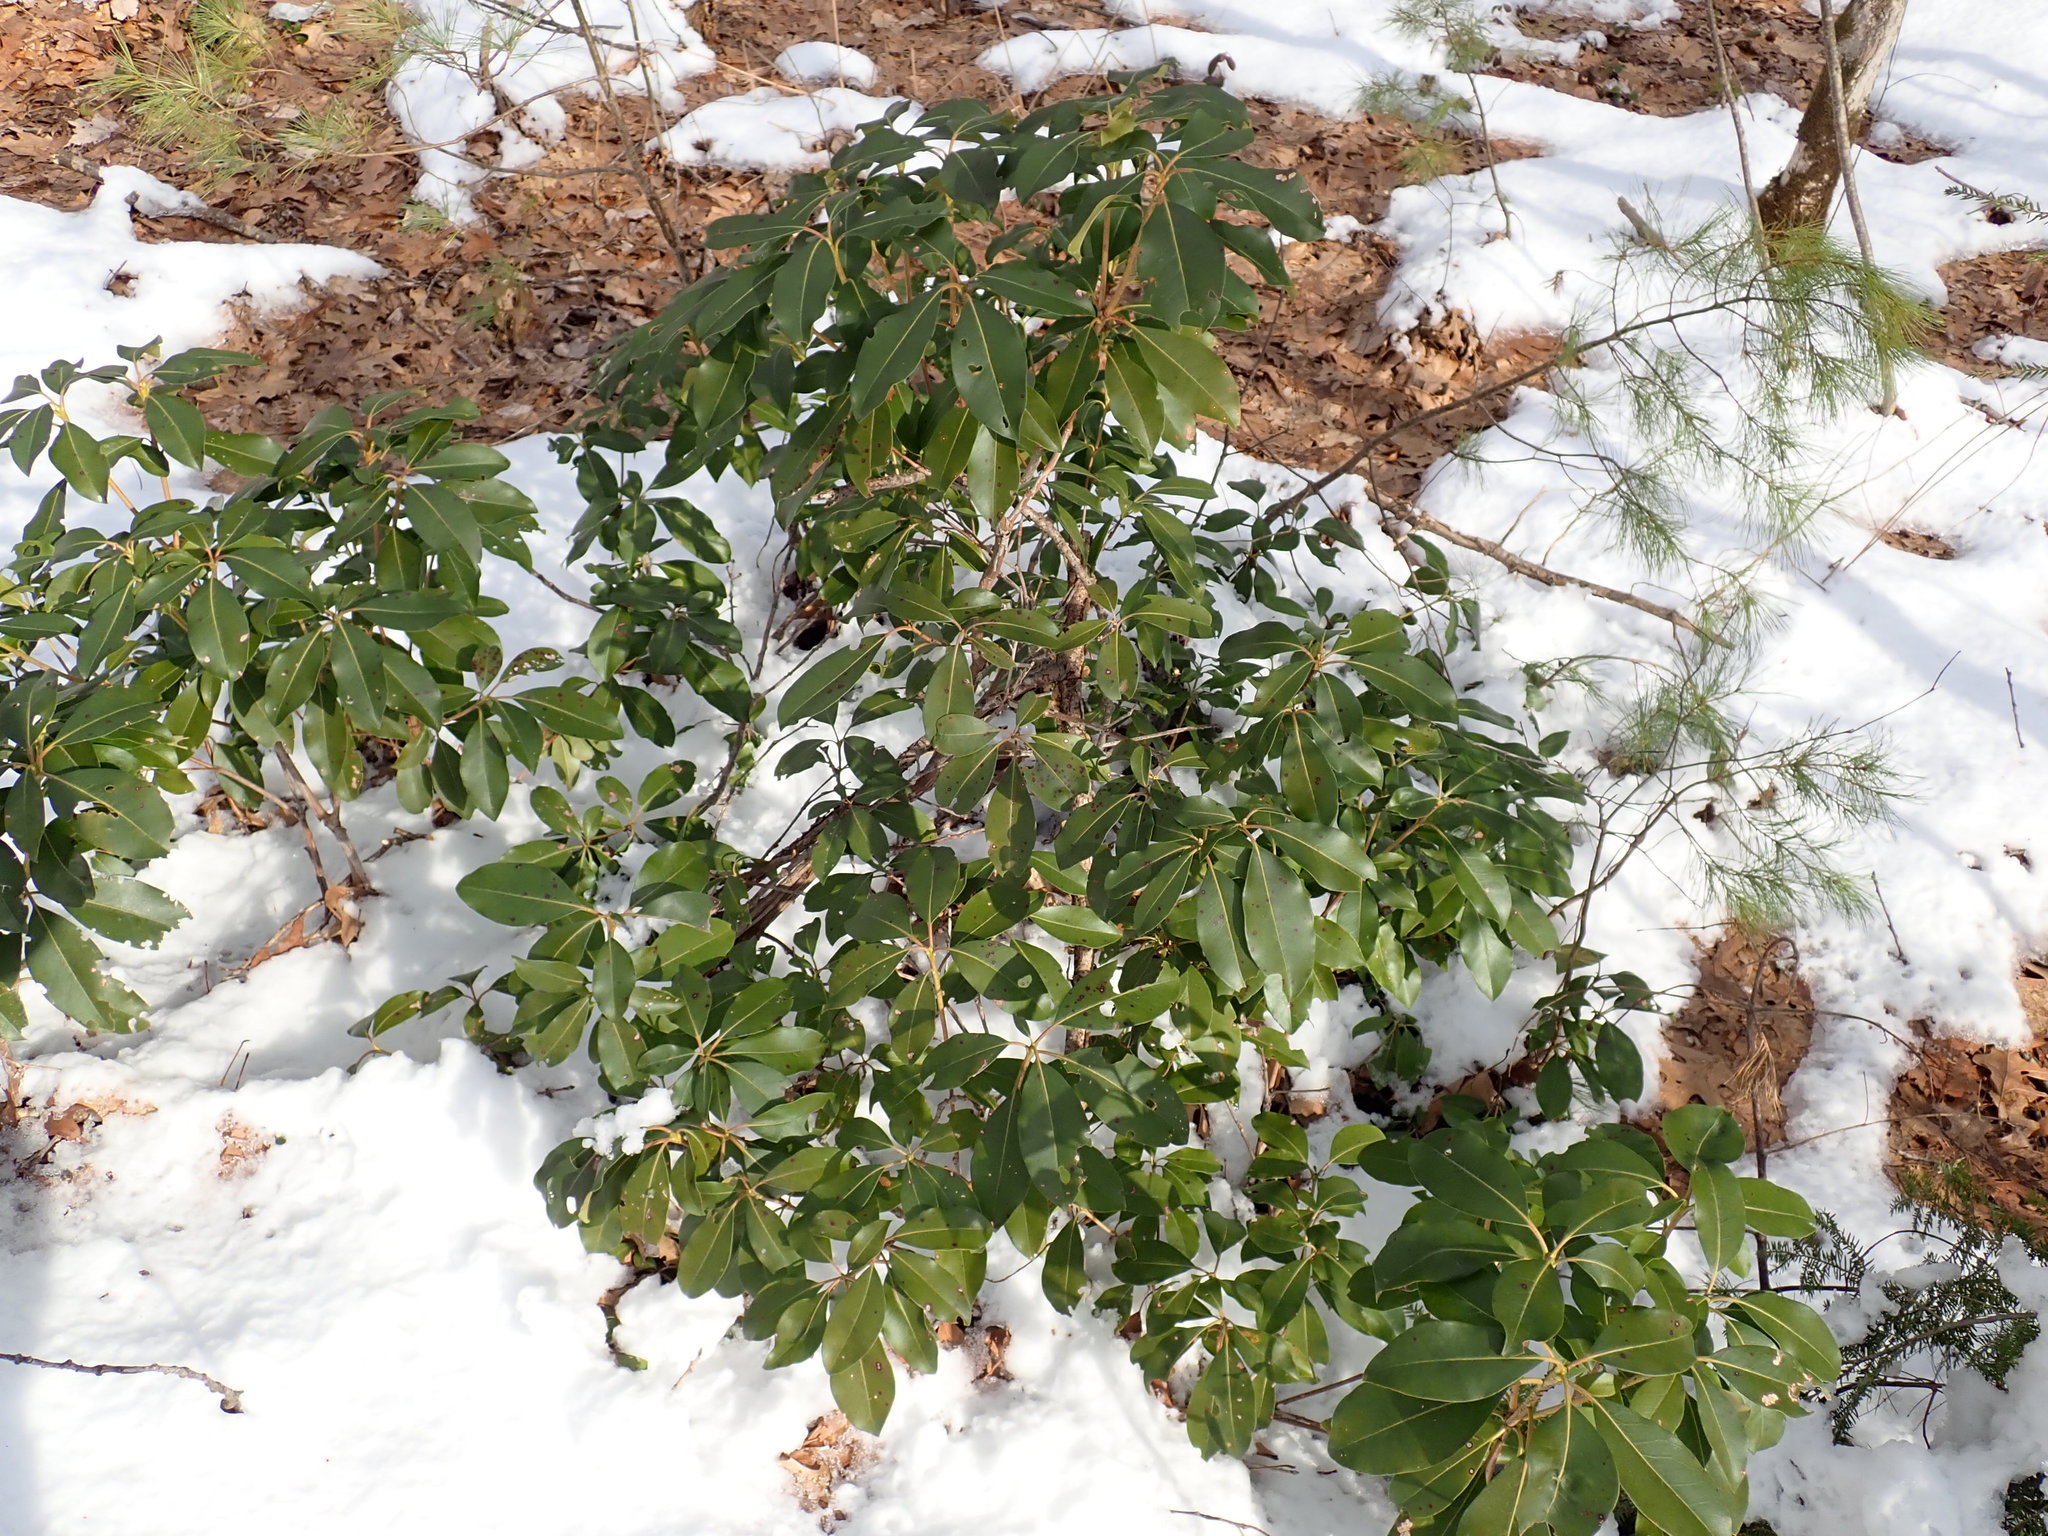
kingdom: Plantae
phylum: Tracheophyta
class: Magnoliopsida
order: Ericales
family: Ericaceae
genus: Kalmia
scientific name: Kalmia latifolia
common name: Mountain-laurel
